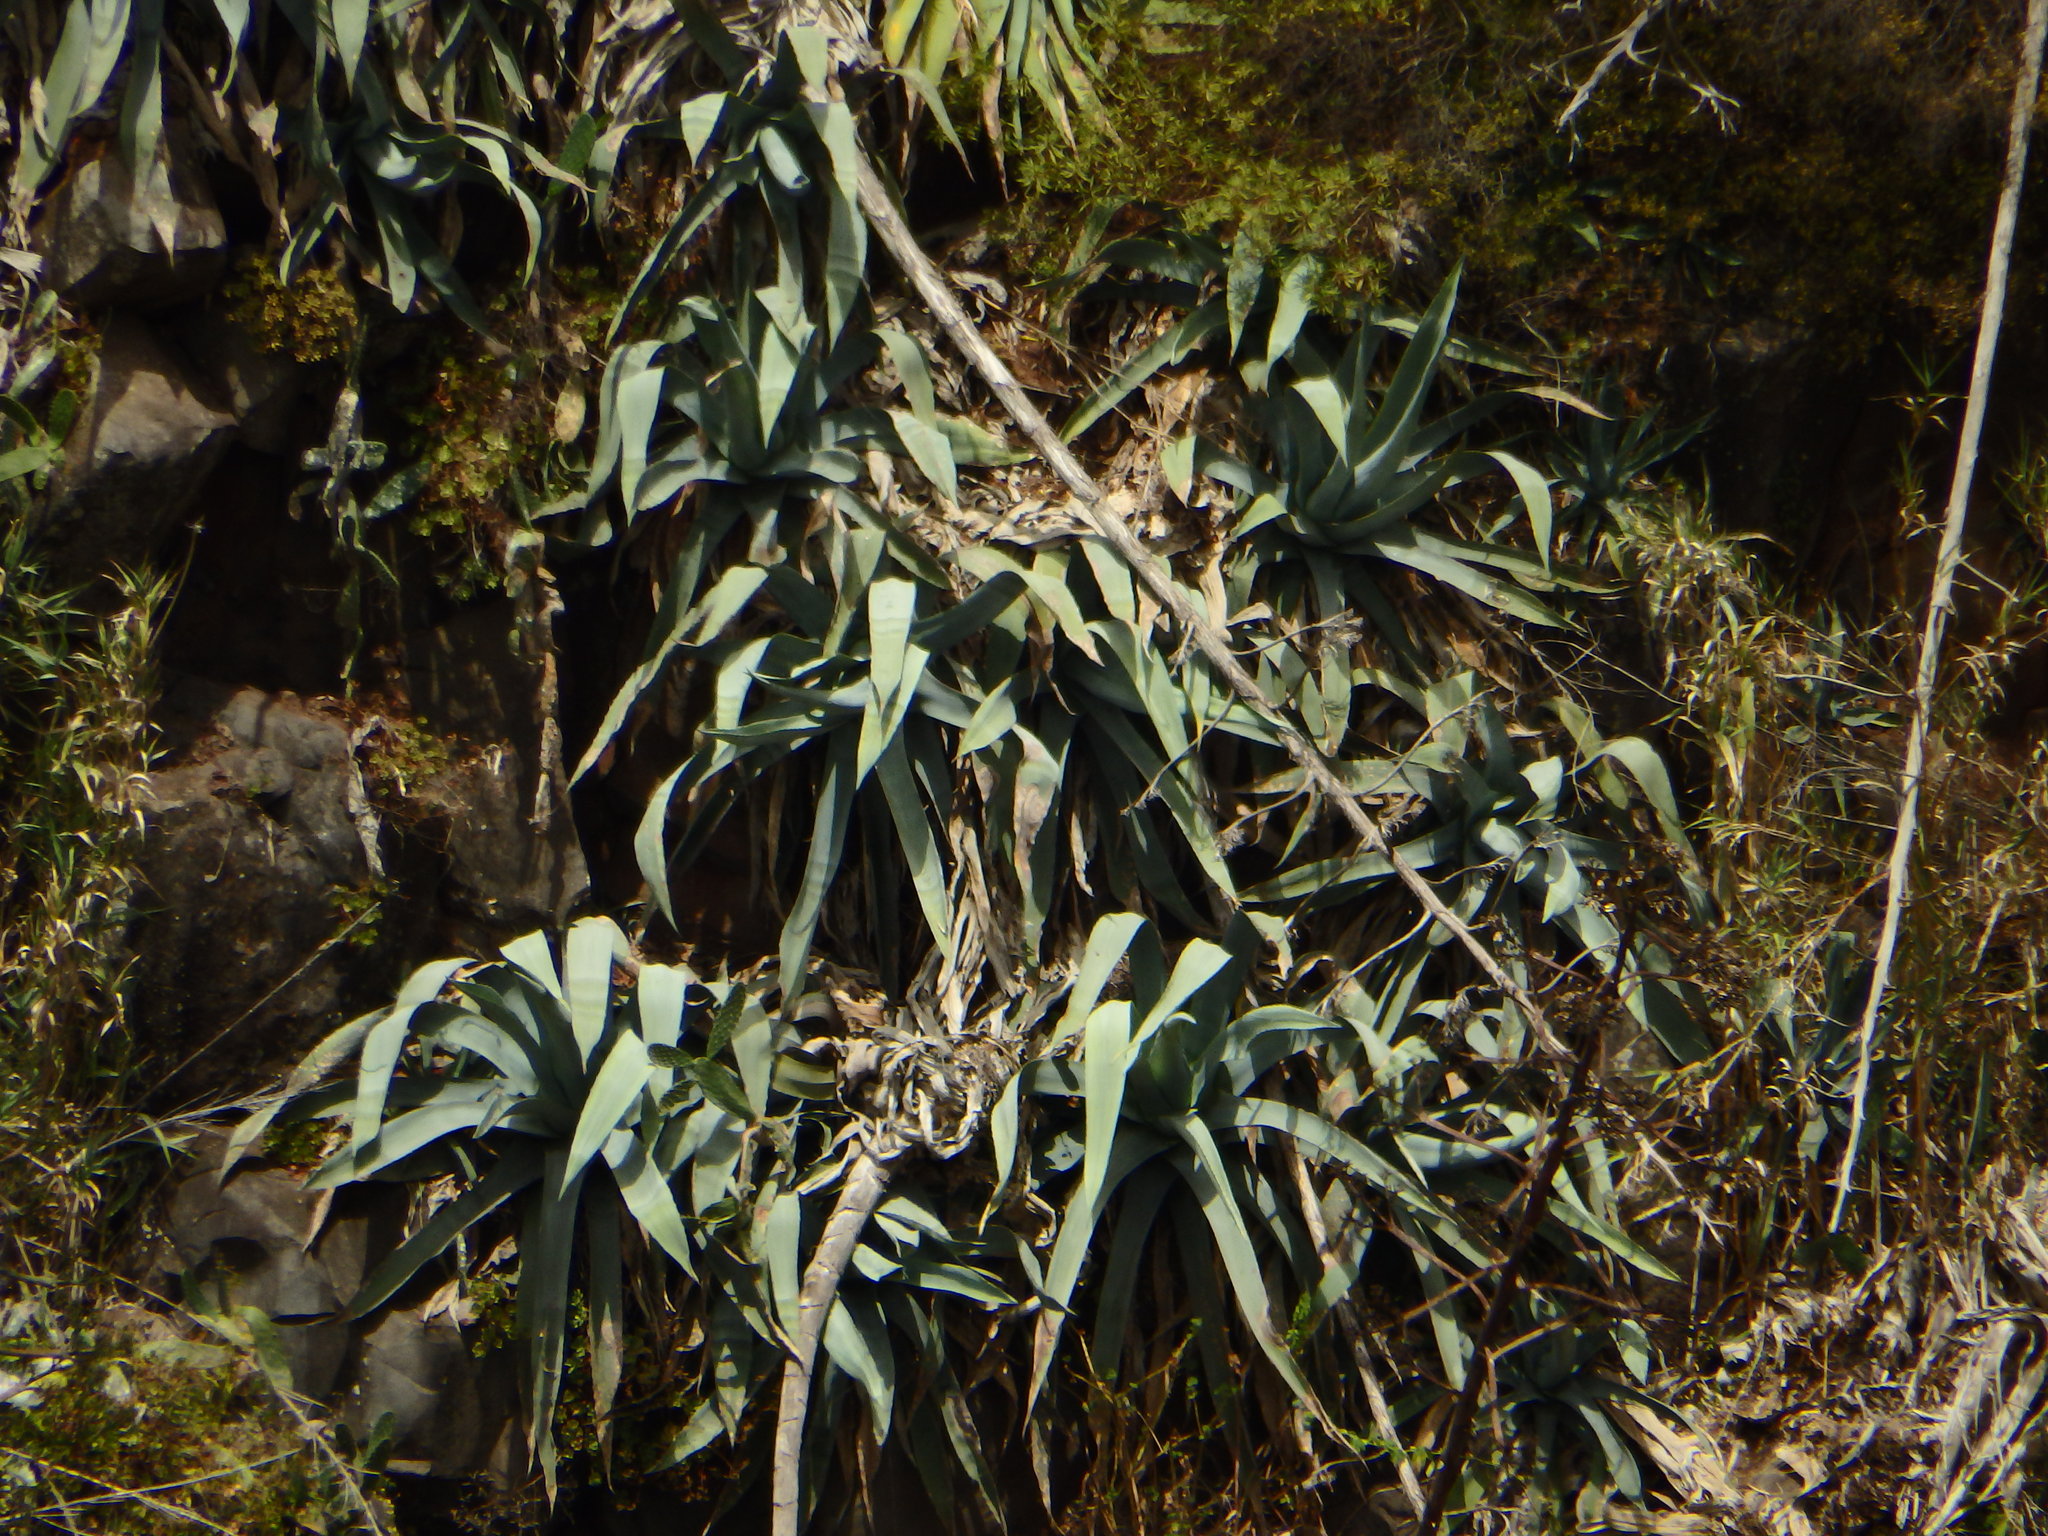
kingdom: Plantae
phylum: Tracheophyta
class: Liliopsida
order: Asparagales
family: Asparagaceae
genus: Agave
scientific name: Agave americana
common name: Centuryplant
